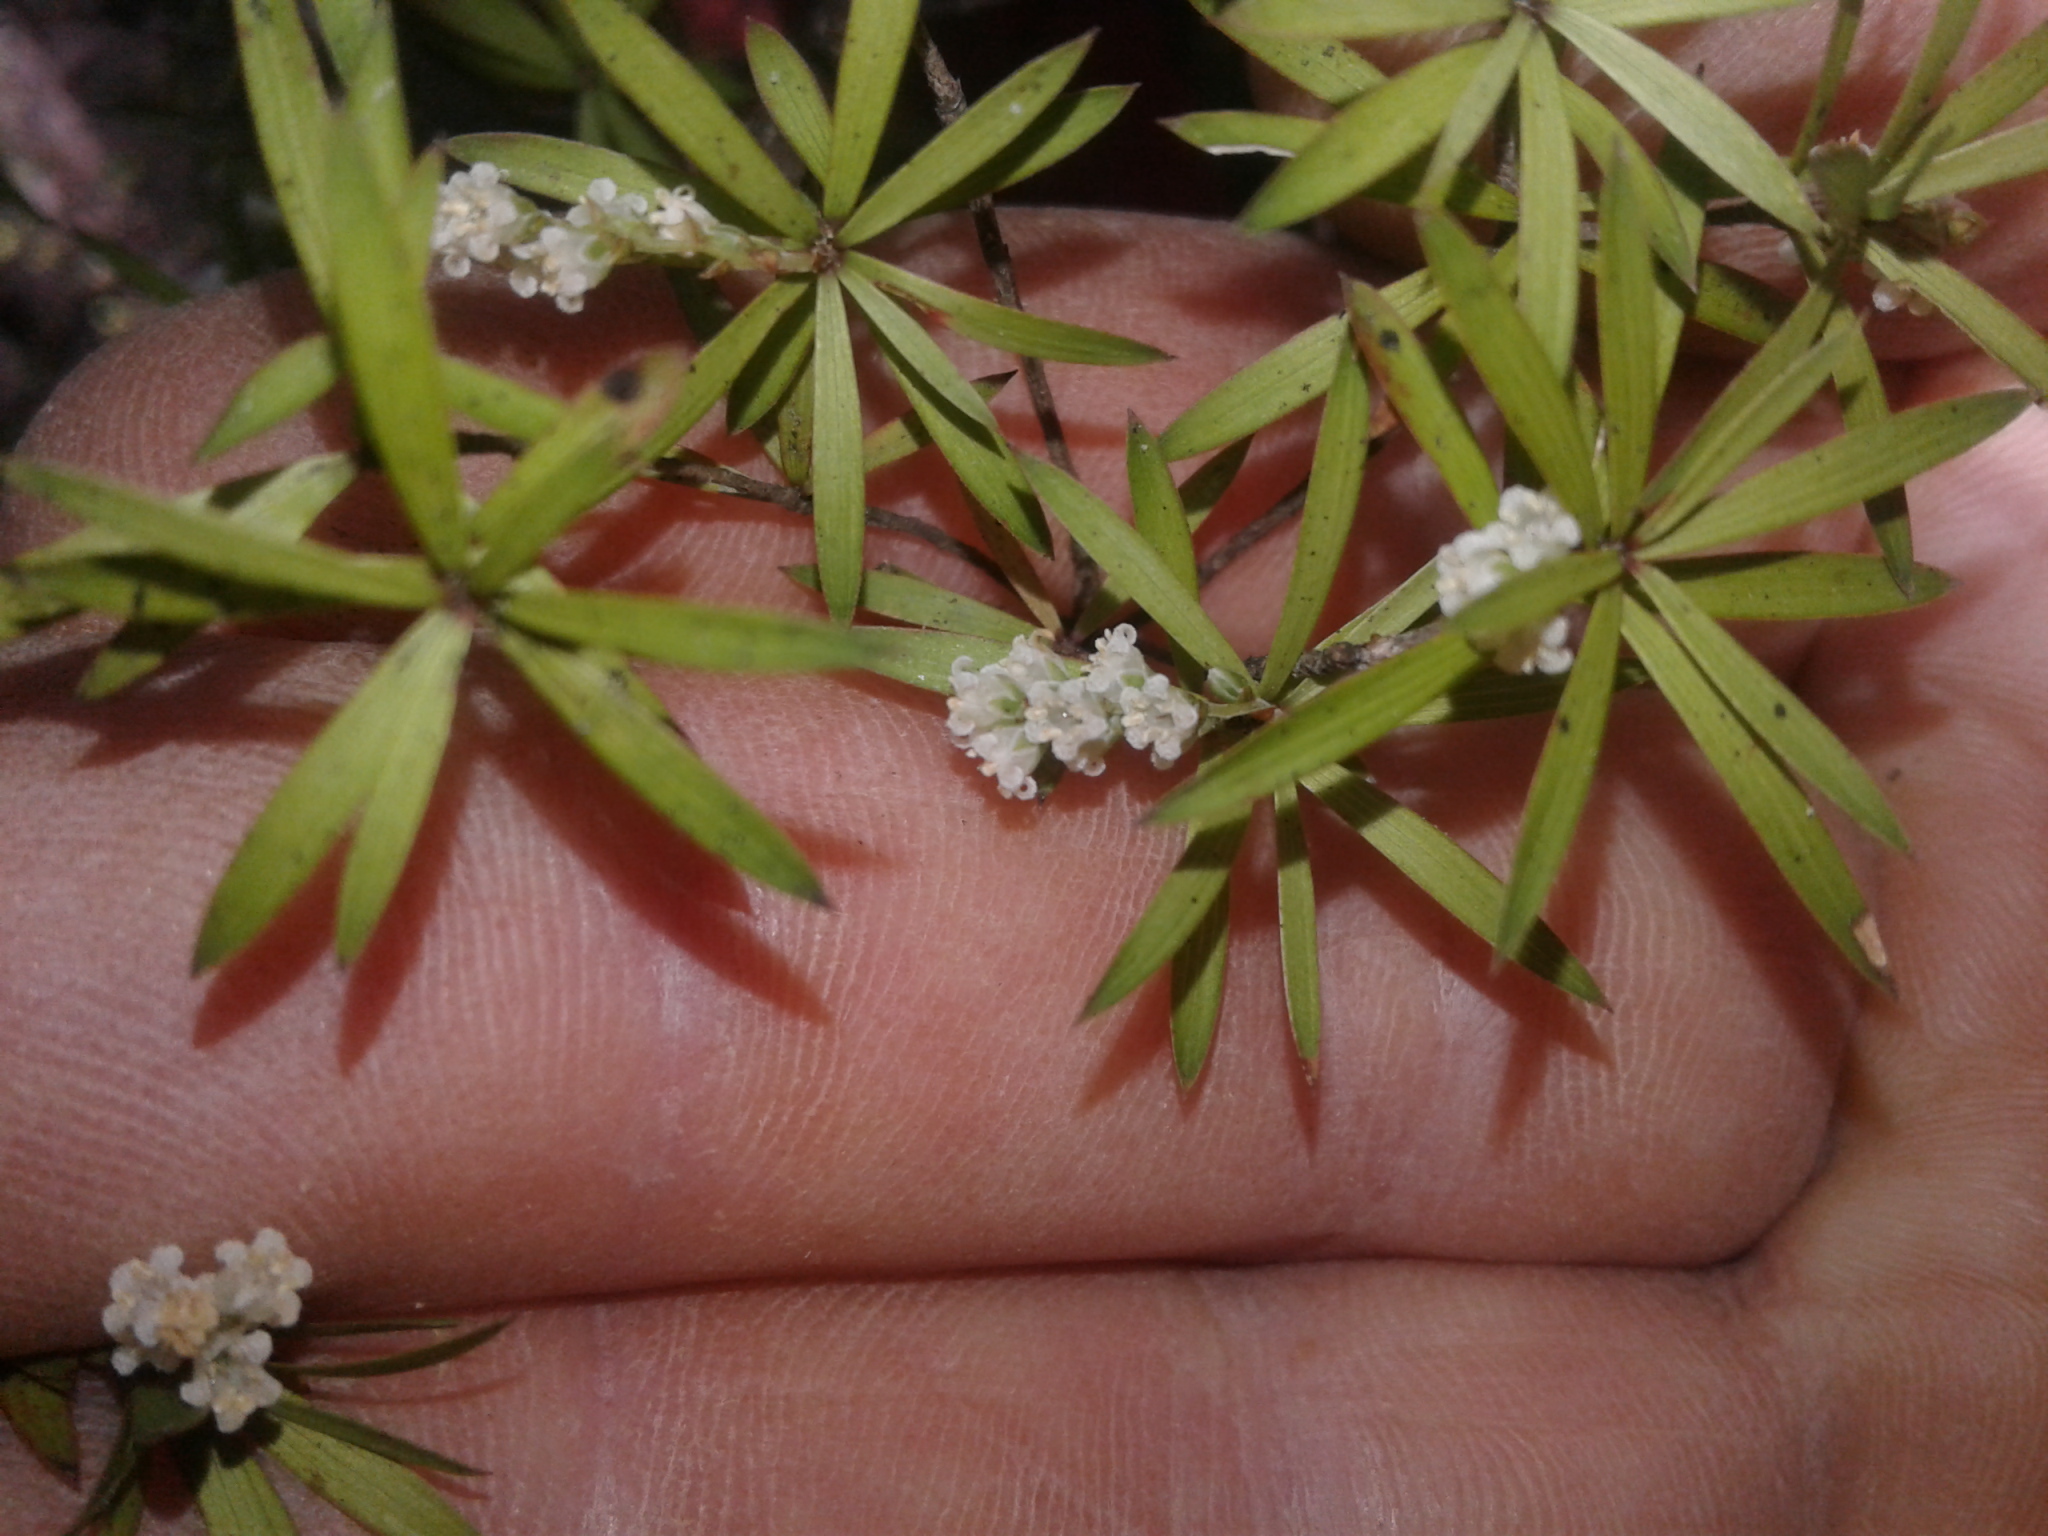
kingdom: Plantae
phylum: Tracheophyta
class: Magnoliopsida
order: Ericales
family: Ericaceae
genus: Leucopogon
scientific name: Leucopogon fasciculatus
